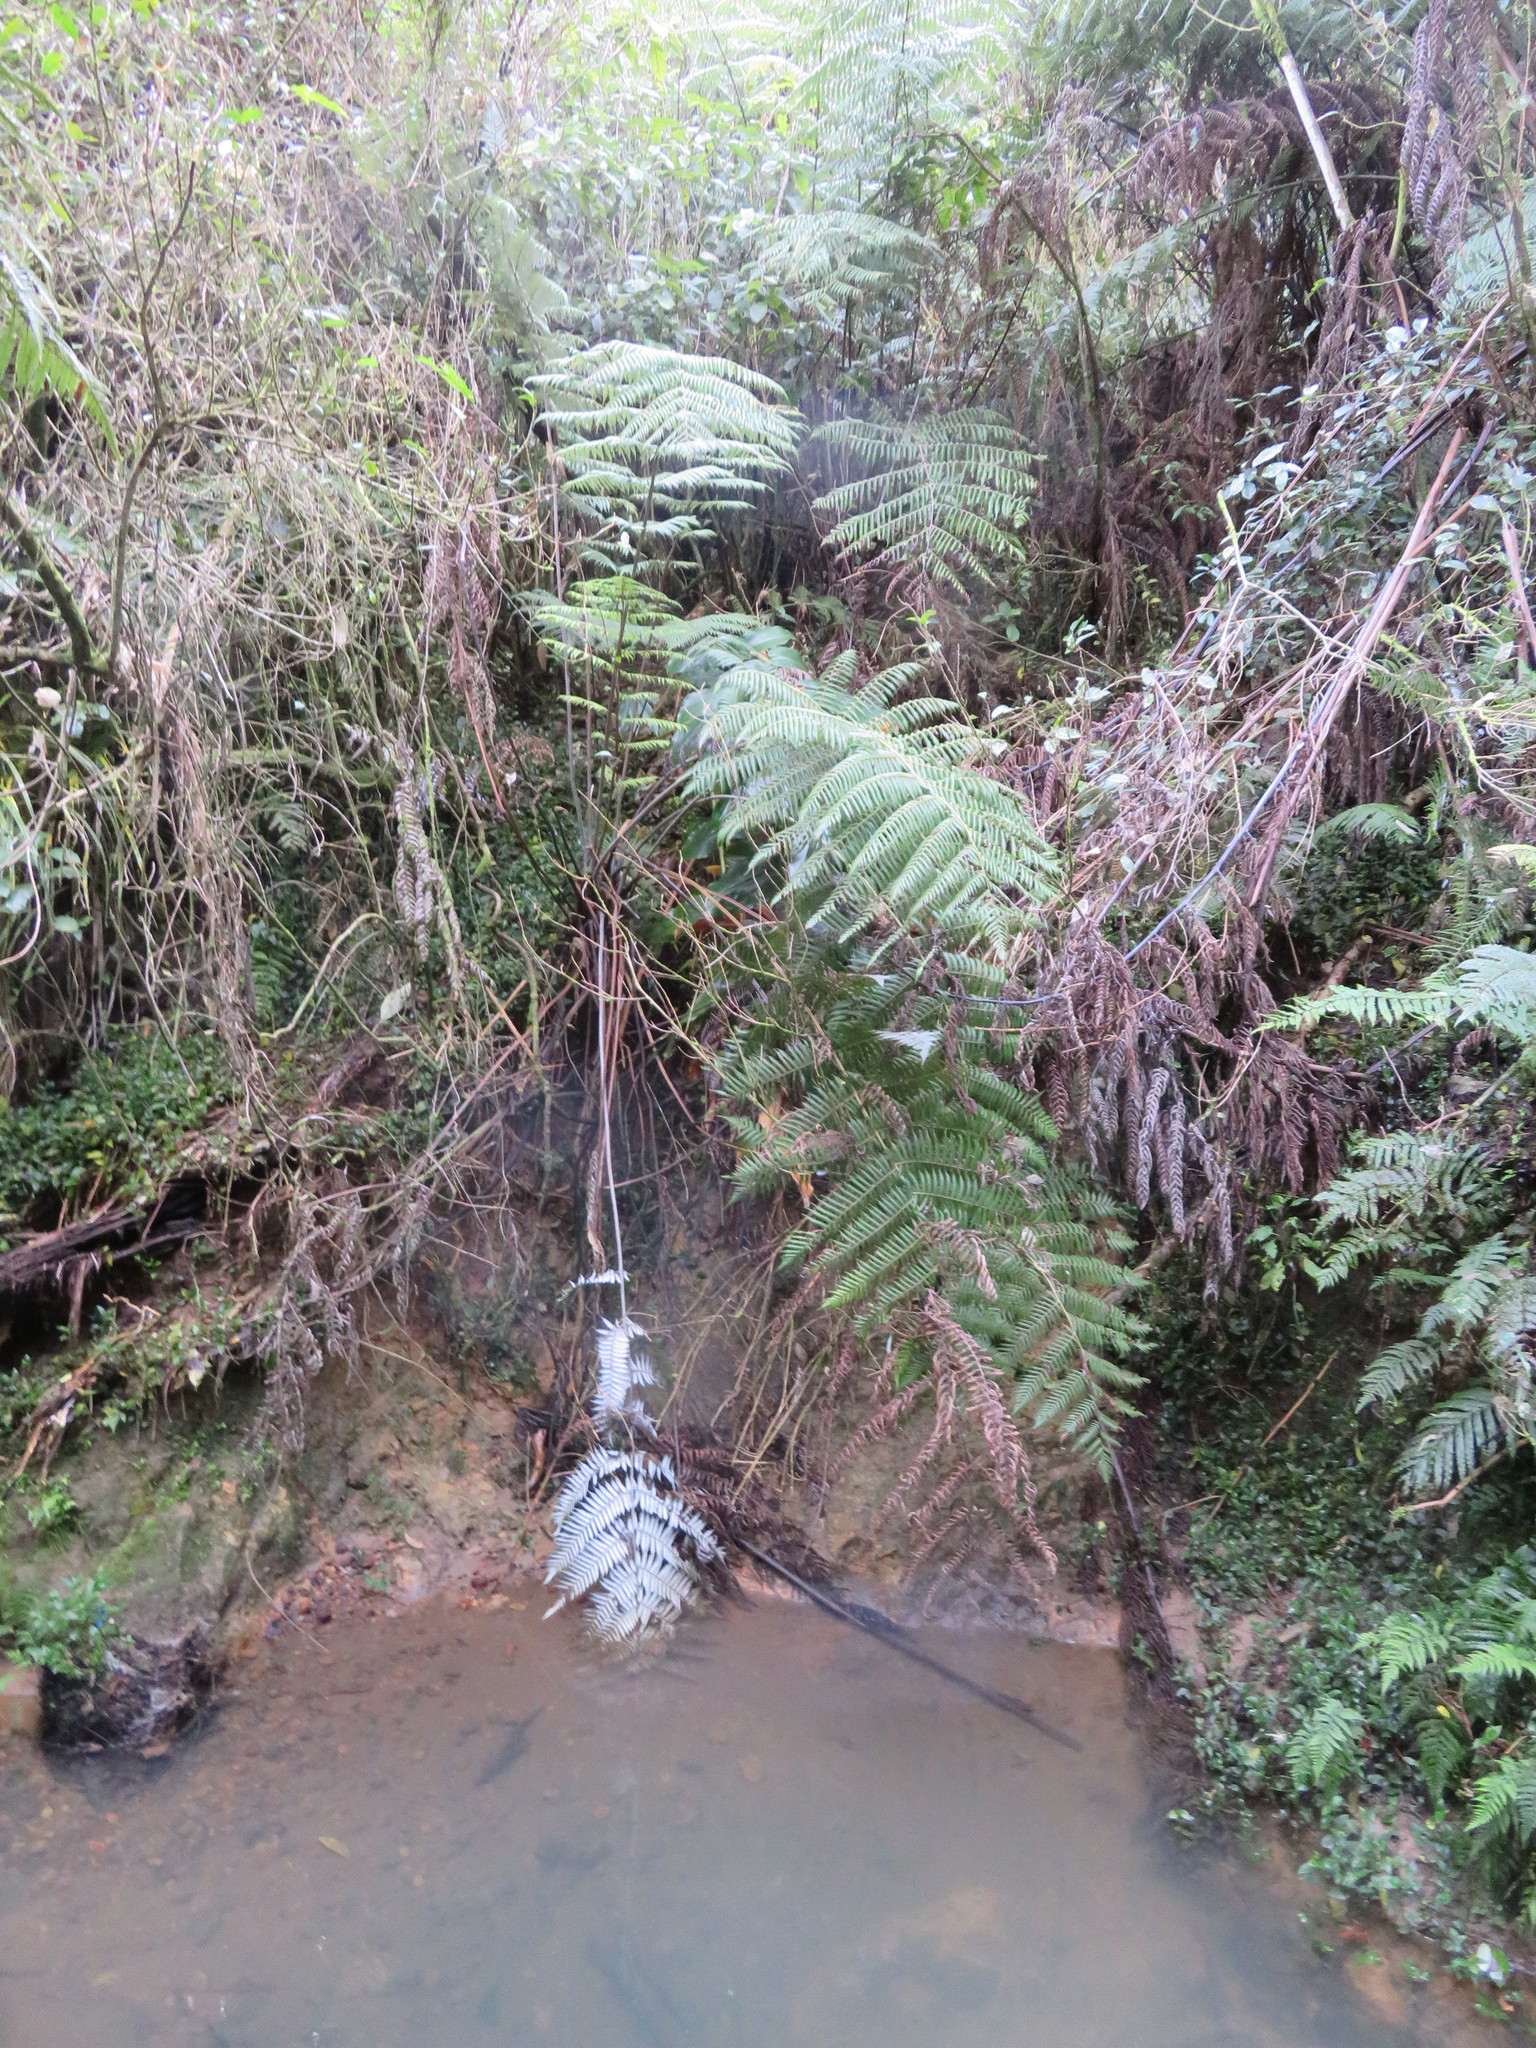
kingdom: Plantae
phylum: Tracheophyta
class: Polypodiopsida
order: Cyatheales
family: Cyatheaceae
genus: Alsophila
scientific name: Alsophila dealbata
